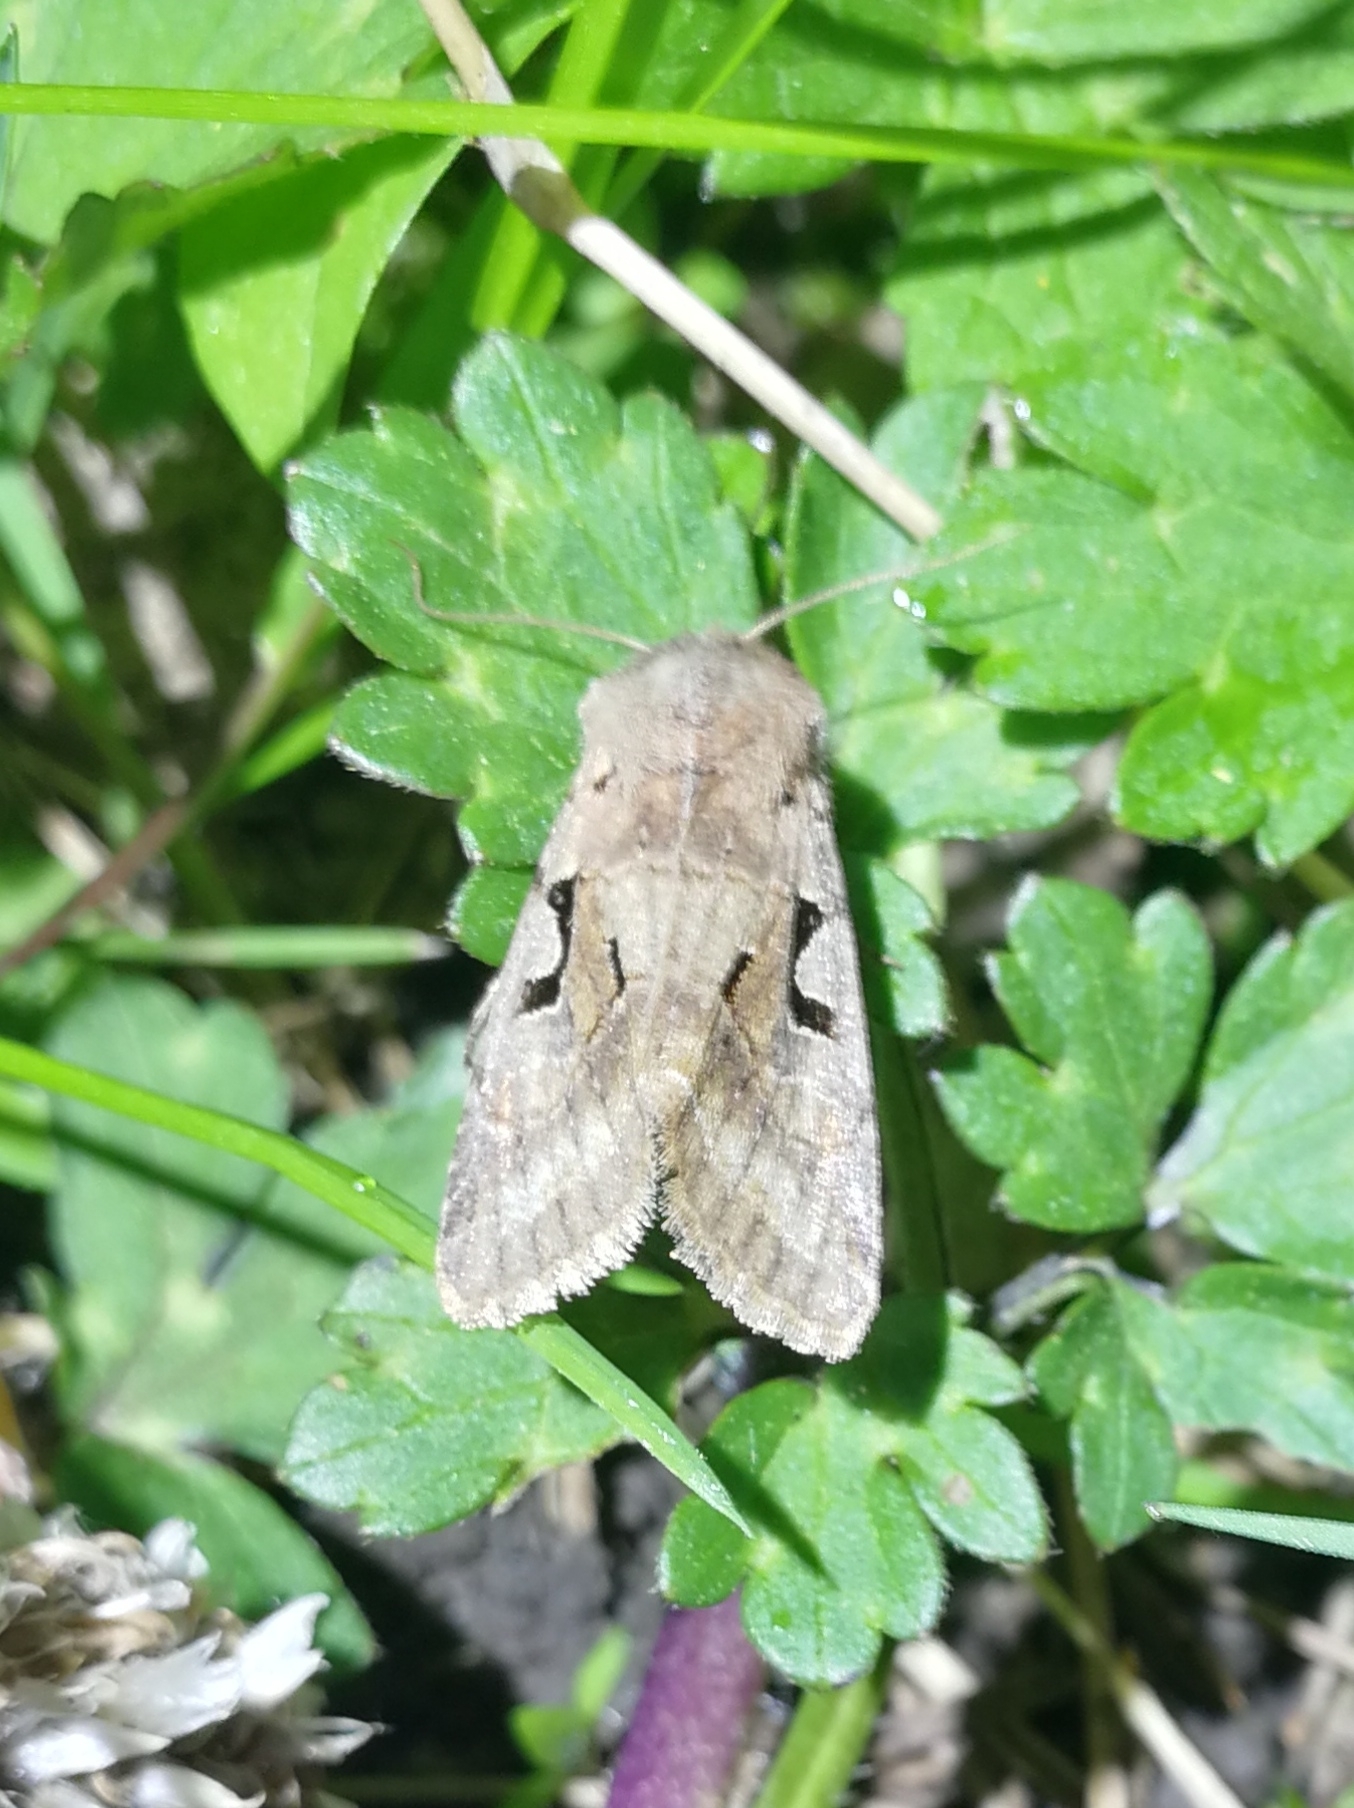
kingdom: Animalia
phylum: Arthropoda
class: Insecta
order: Lepidoptera
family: Noctuidae
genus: Orthosia
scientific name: Orthosia gothica
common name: Hebrew character
